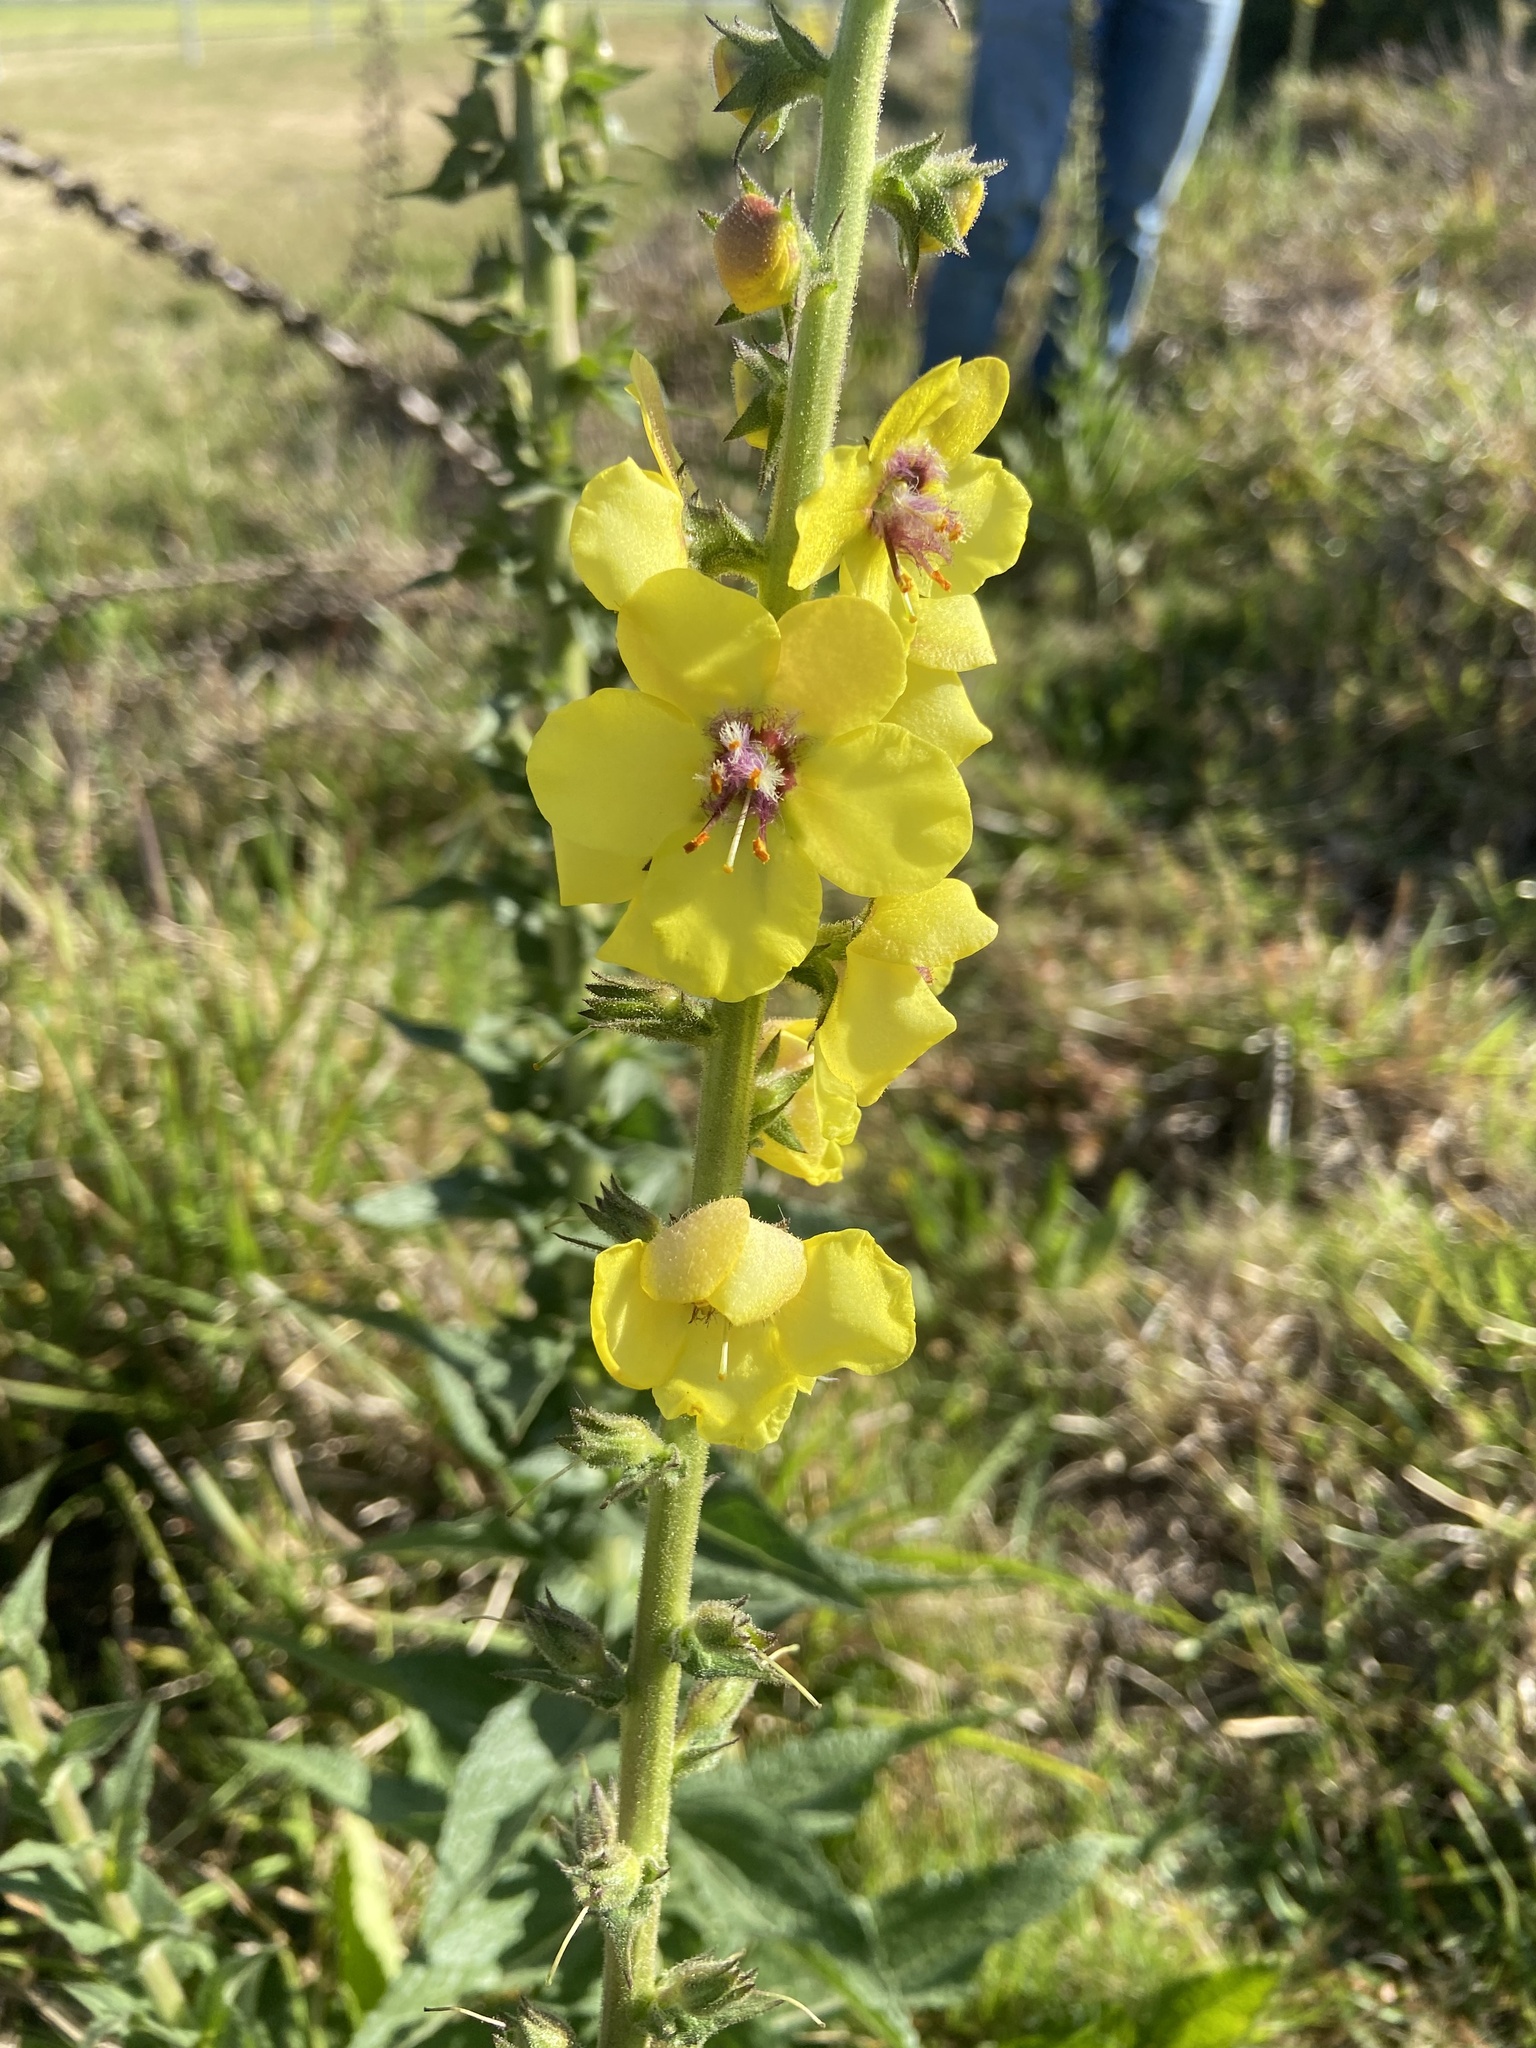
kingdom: Plantae
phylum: Tracheophyta
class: Magnoliopsida
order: Lamiales
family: Scrophulariaceae
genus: Verbascum
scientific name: Verbascum virgatum
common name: Twiggy mullein
